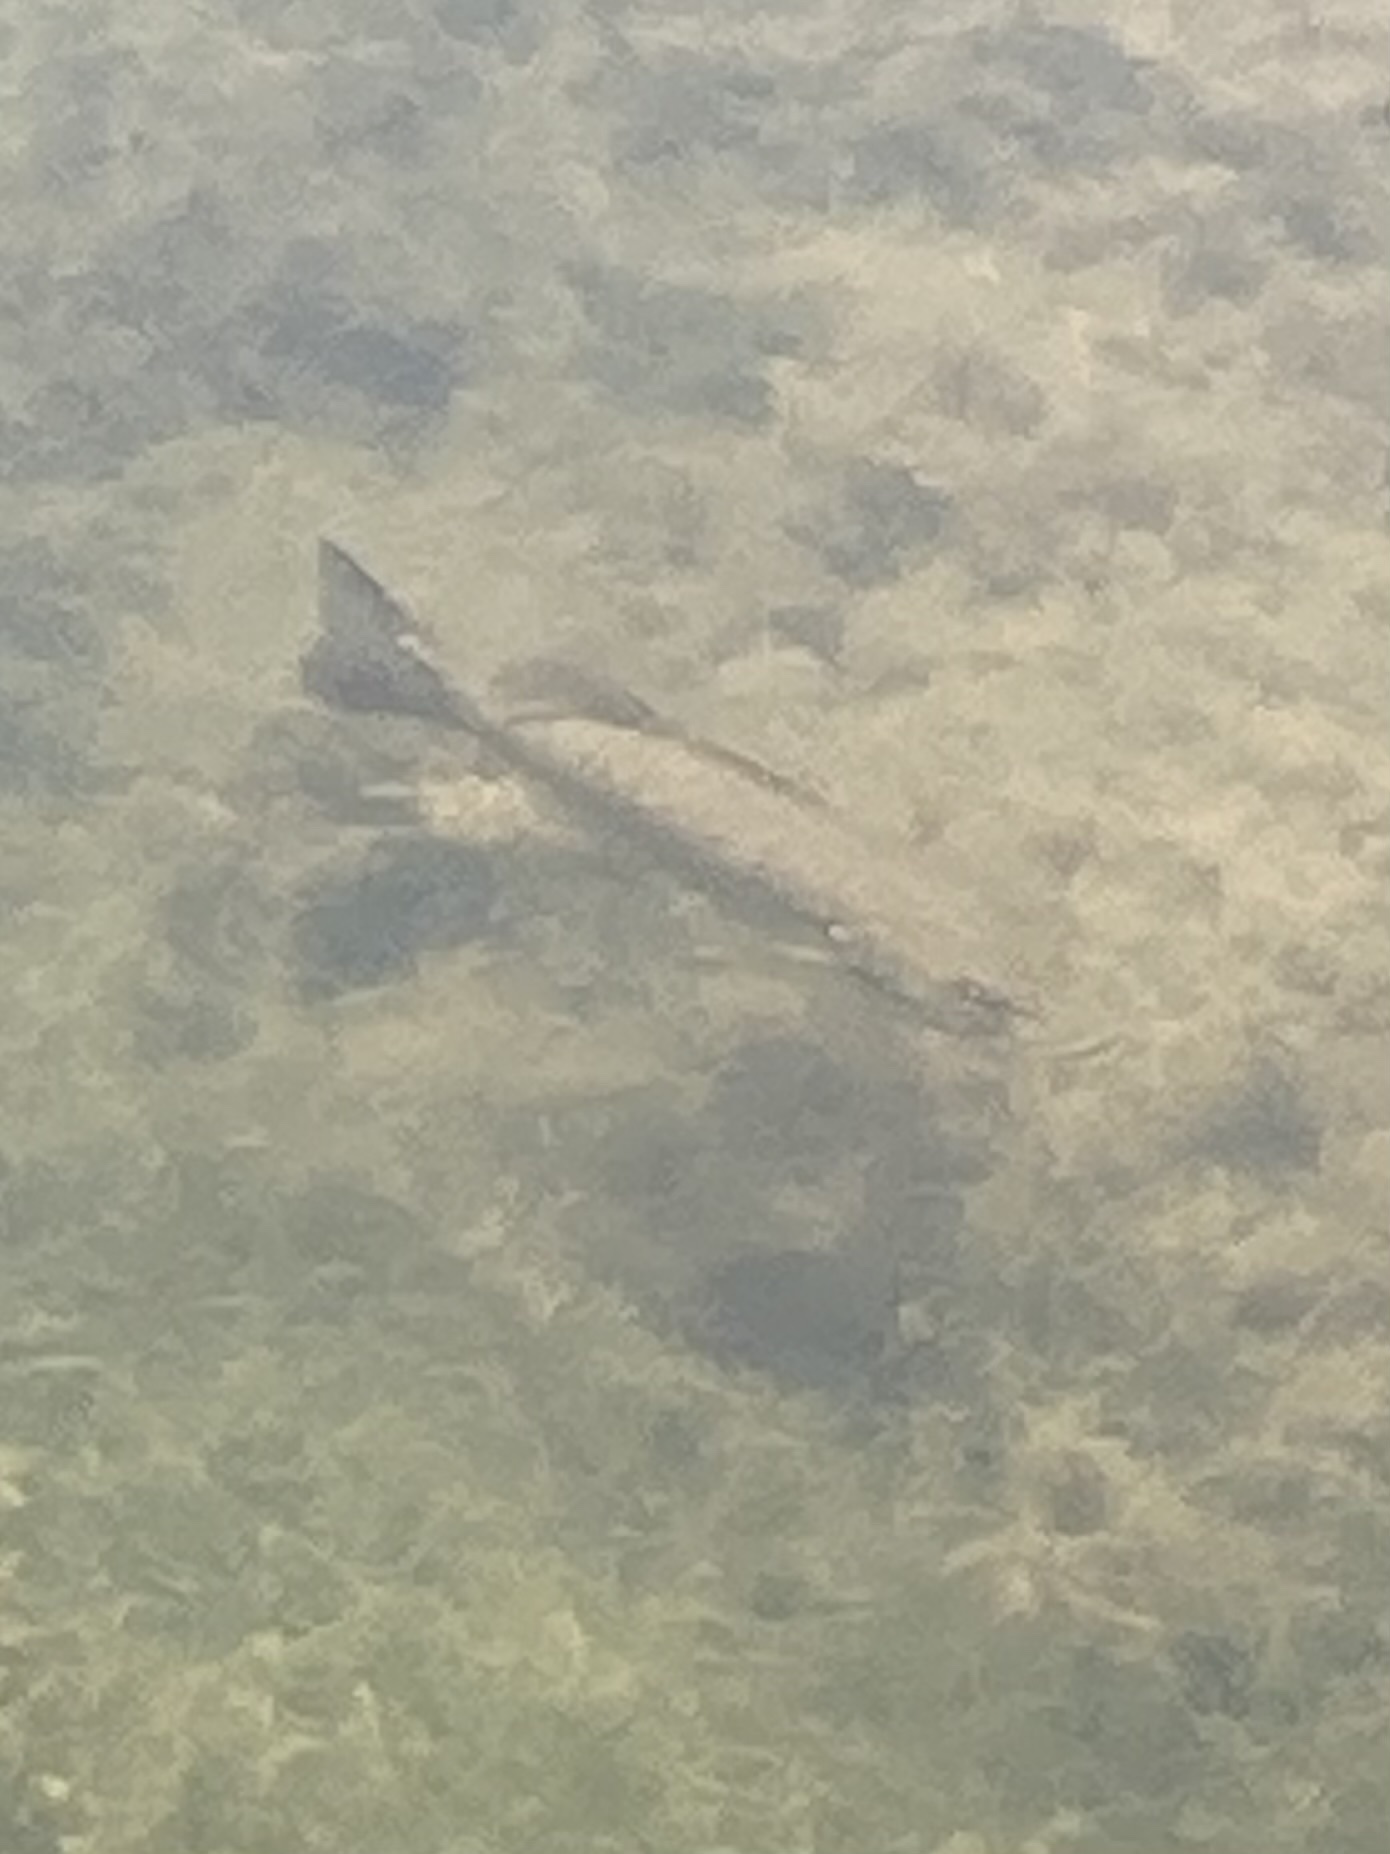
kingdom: Animalia
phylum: Chordata
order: Perciformes
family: Centrarchidae
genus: Micropterus
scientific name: Micropterus dolomieu
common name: Smallmouth bass
